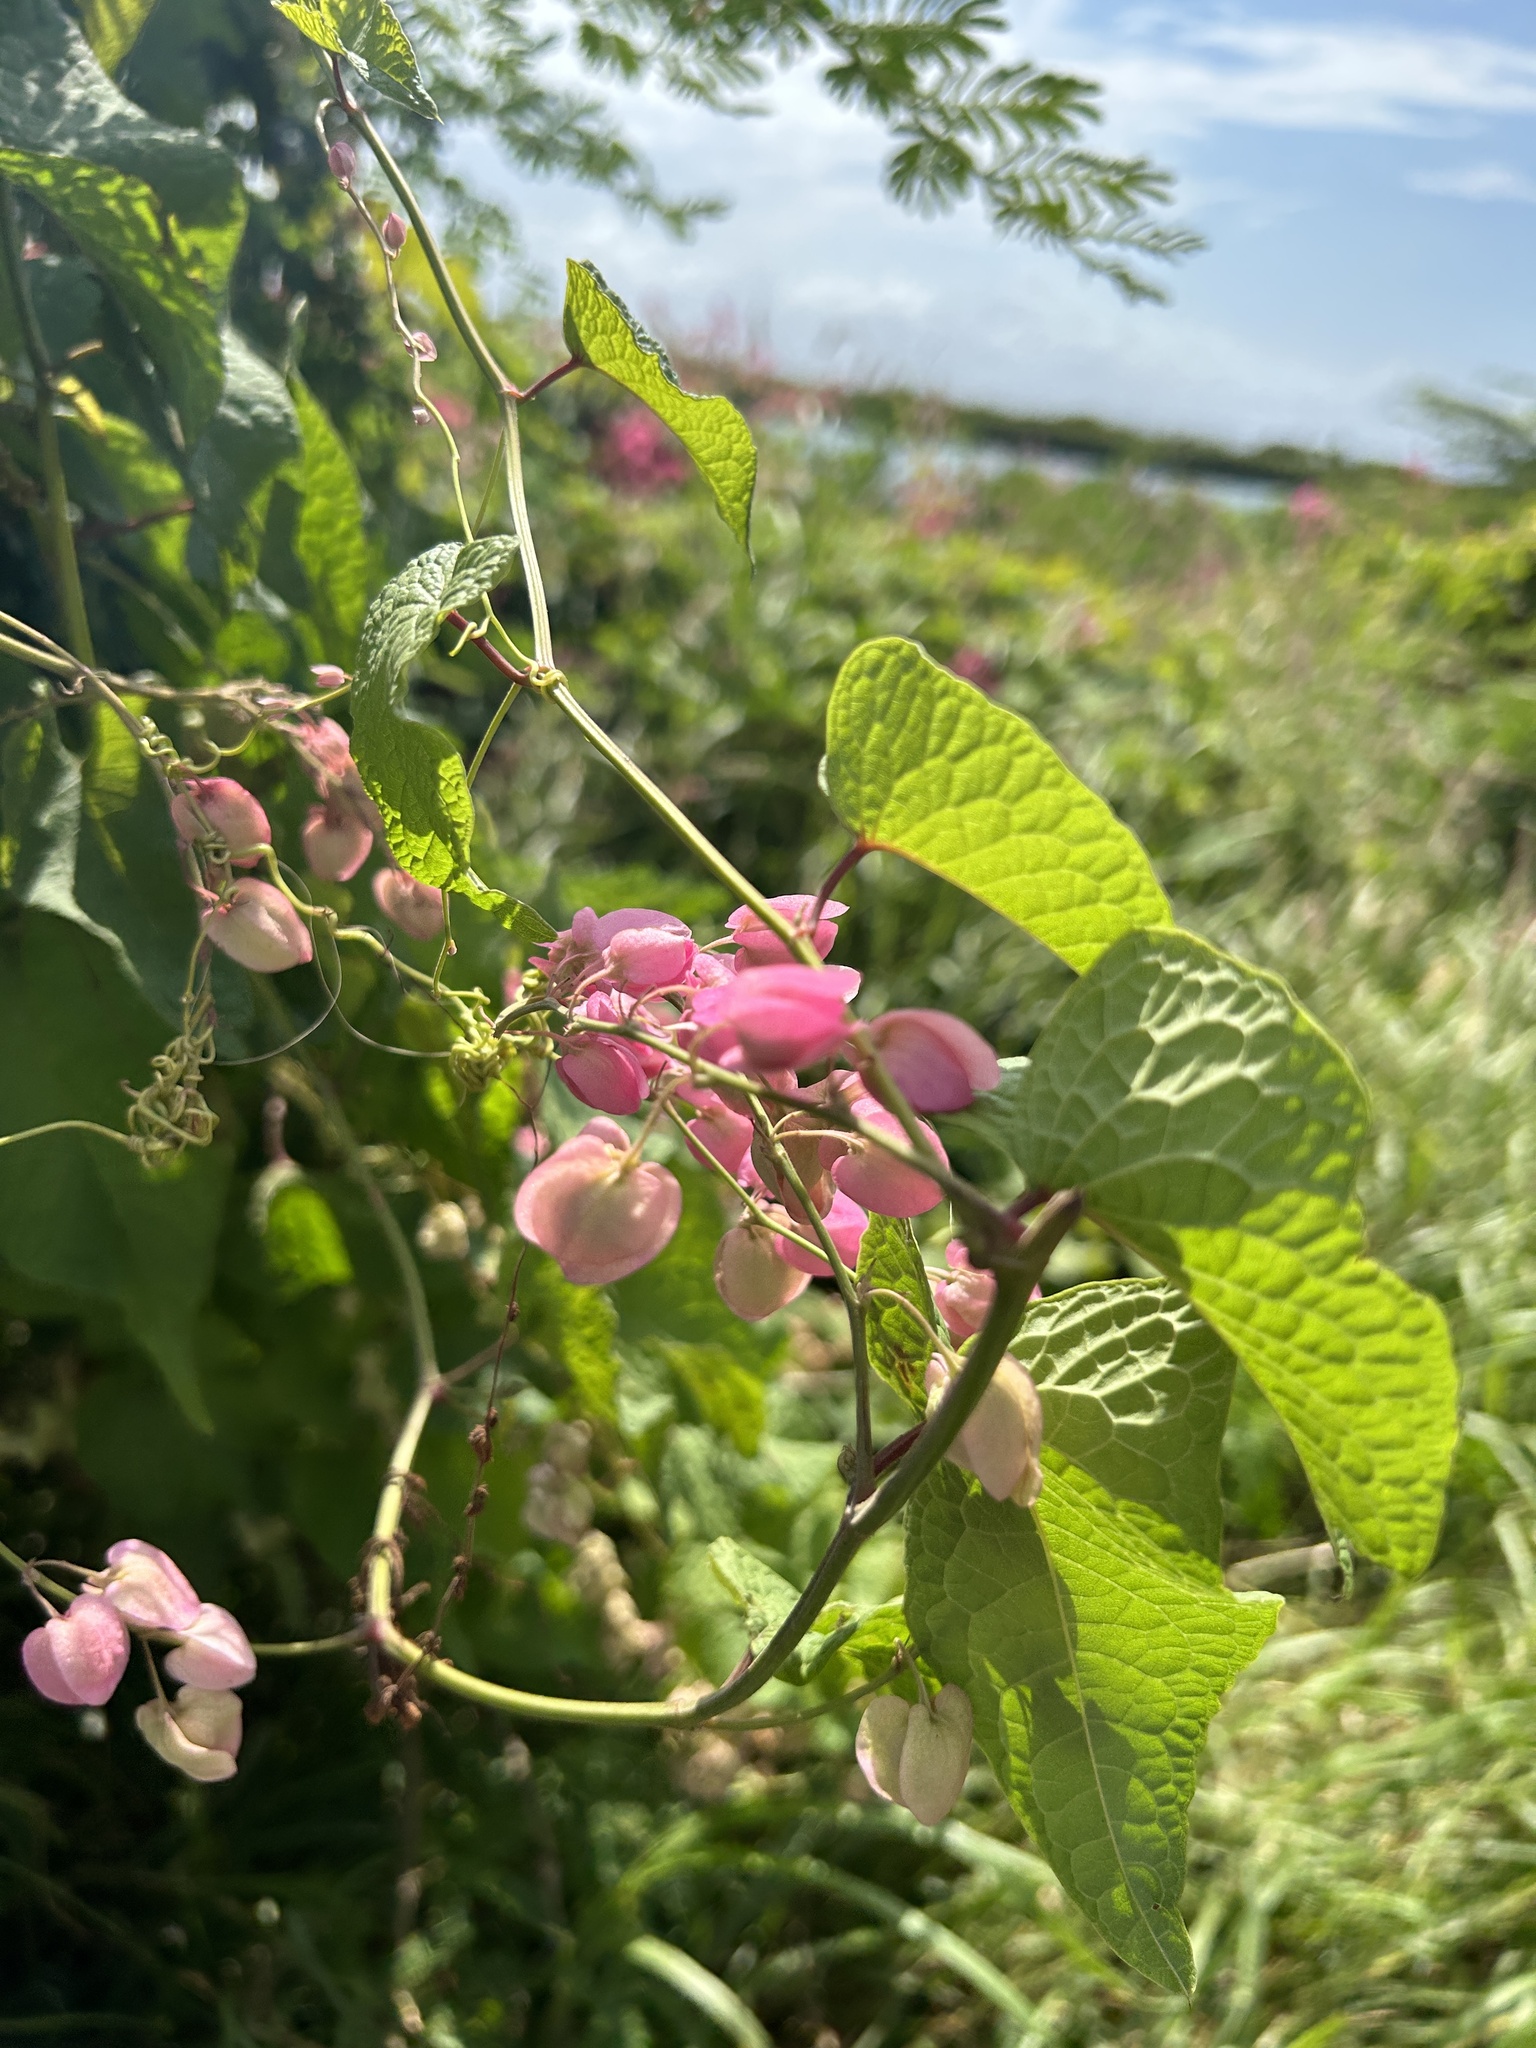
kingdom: Plantae
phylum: Tracheophyta
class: Magnoliopsida
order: Caryophyllales
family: Polygonaceae
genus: Antigonon
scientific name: Antigonon leptopus
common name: Coral vine
